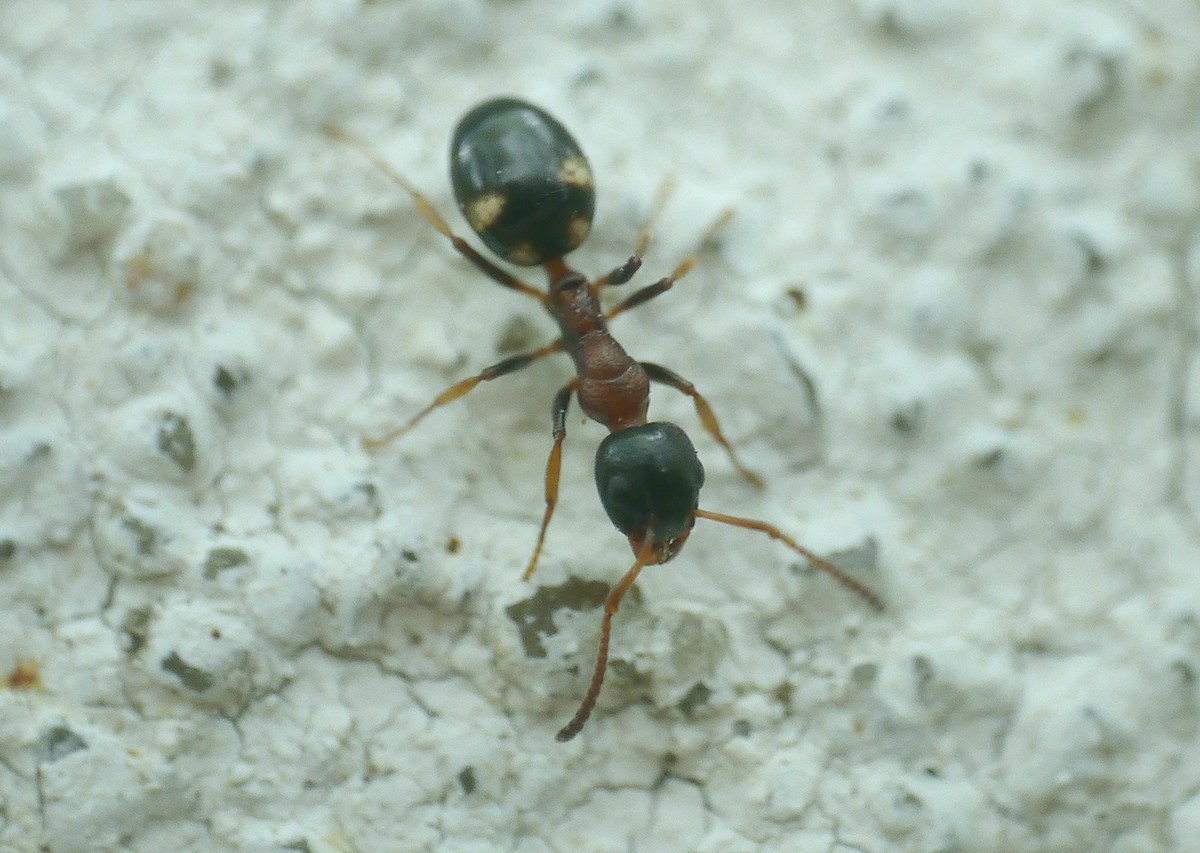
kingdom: Animalia
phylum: Arthropoda
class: Insecta
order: Hymenoptera
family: Formicidae
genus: Dolichoderus
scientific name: Dolichoderus quadripunctatus
